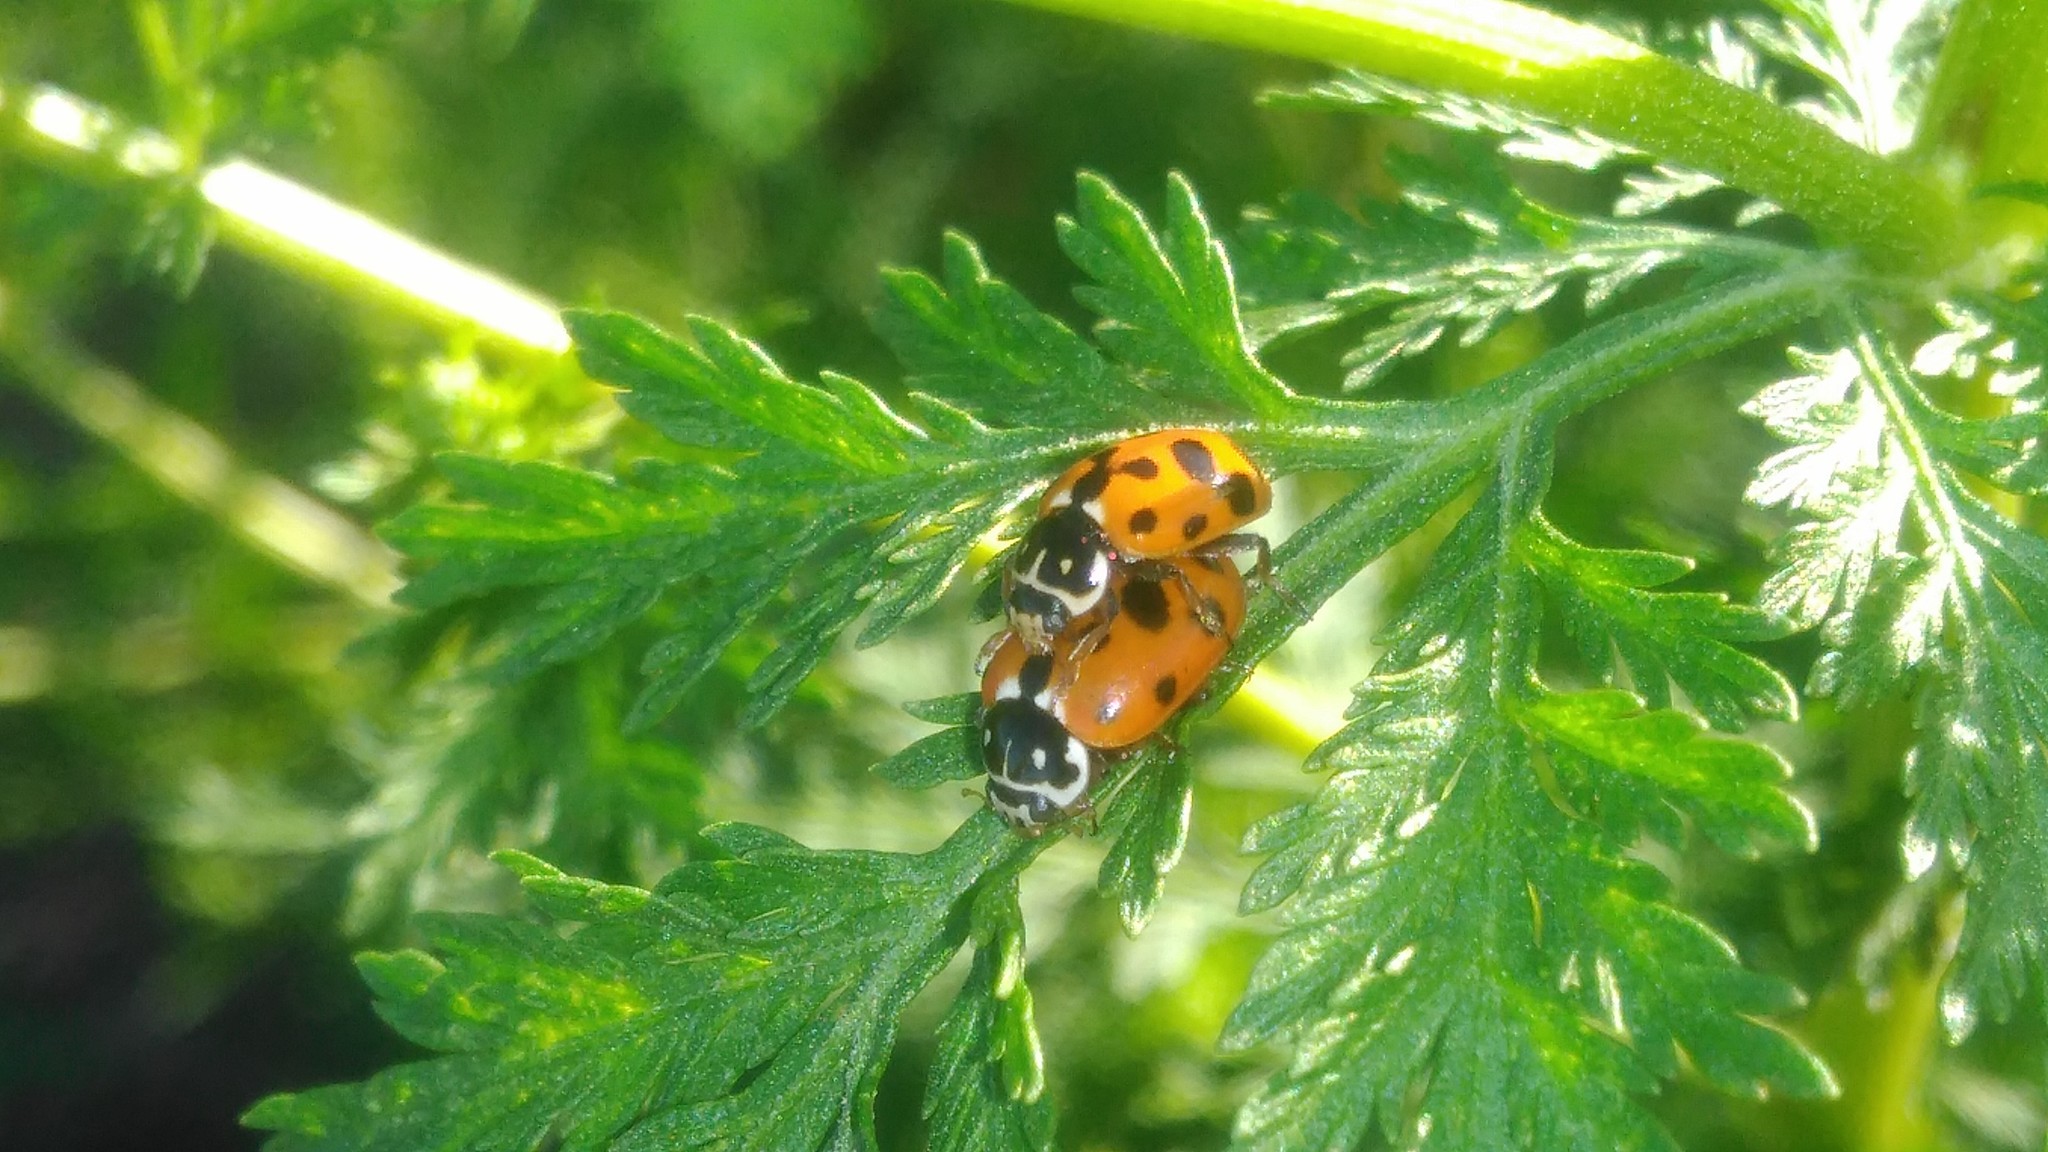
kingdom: Animalia
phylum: Arthropoda
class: Insecta
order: Coleoptera
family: Coccinellidae
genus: Hippodamia
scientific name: Hippodamia variegata
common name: Ladybird beetle
